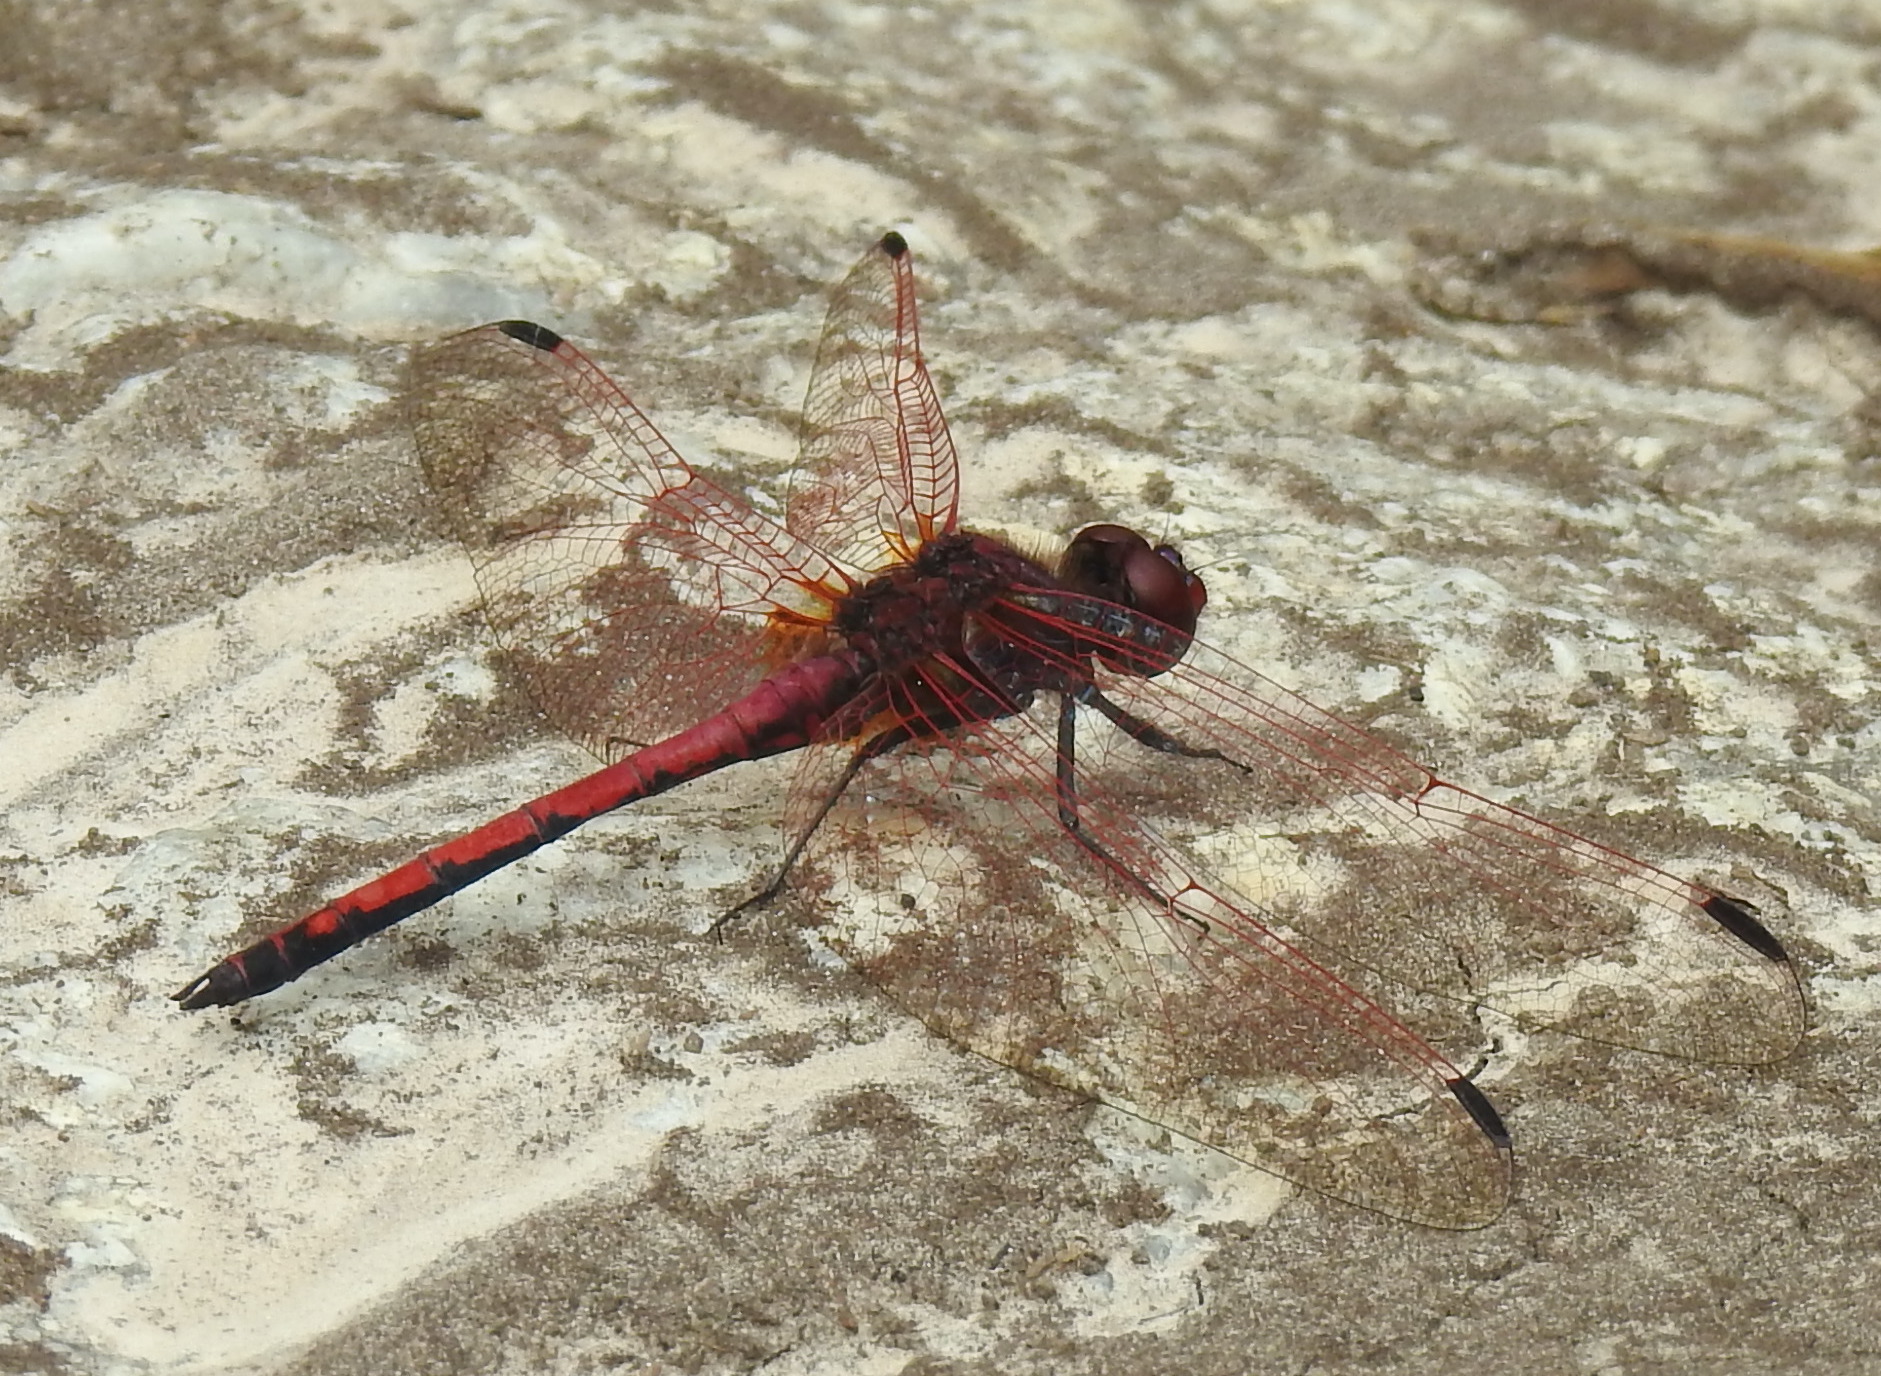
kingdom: Animalia
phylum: Arthropoda
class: Insecta
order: Odonata
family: Libellulidae
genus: Trithemis
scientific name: Trithemis arteriosa
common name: Red-veined dropwing
